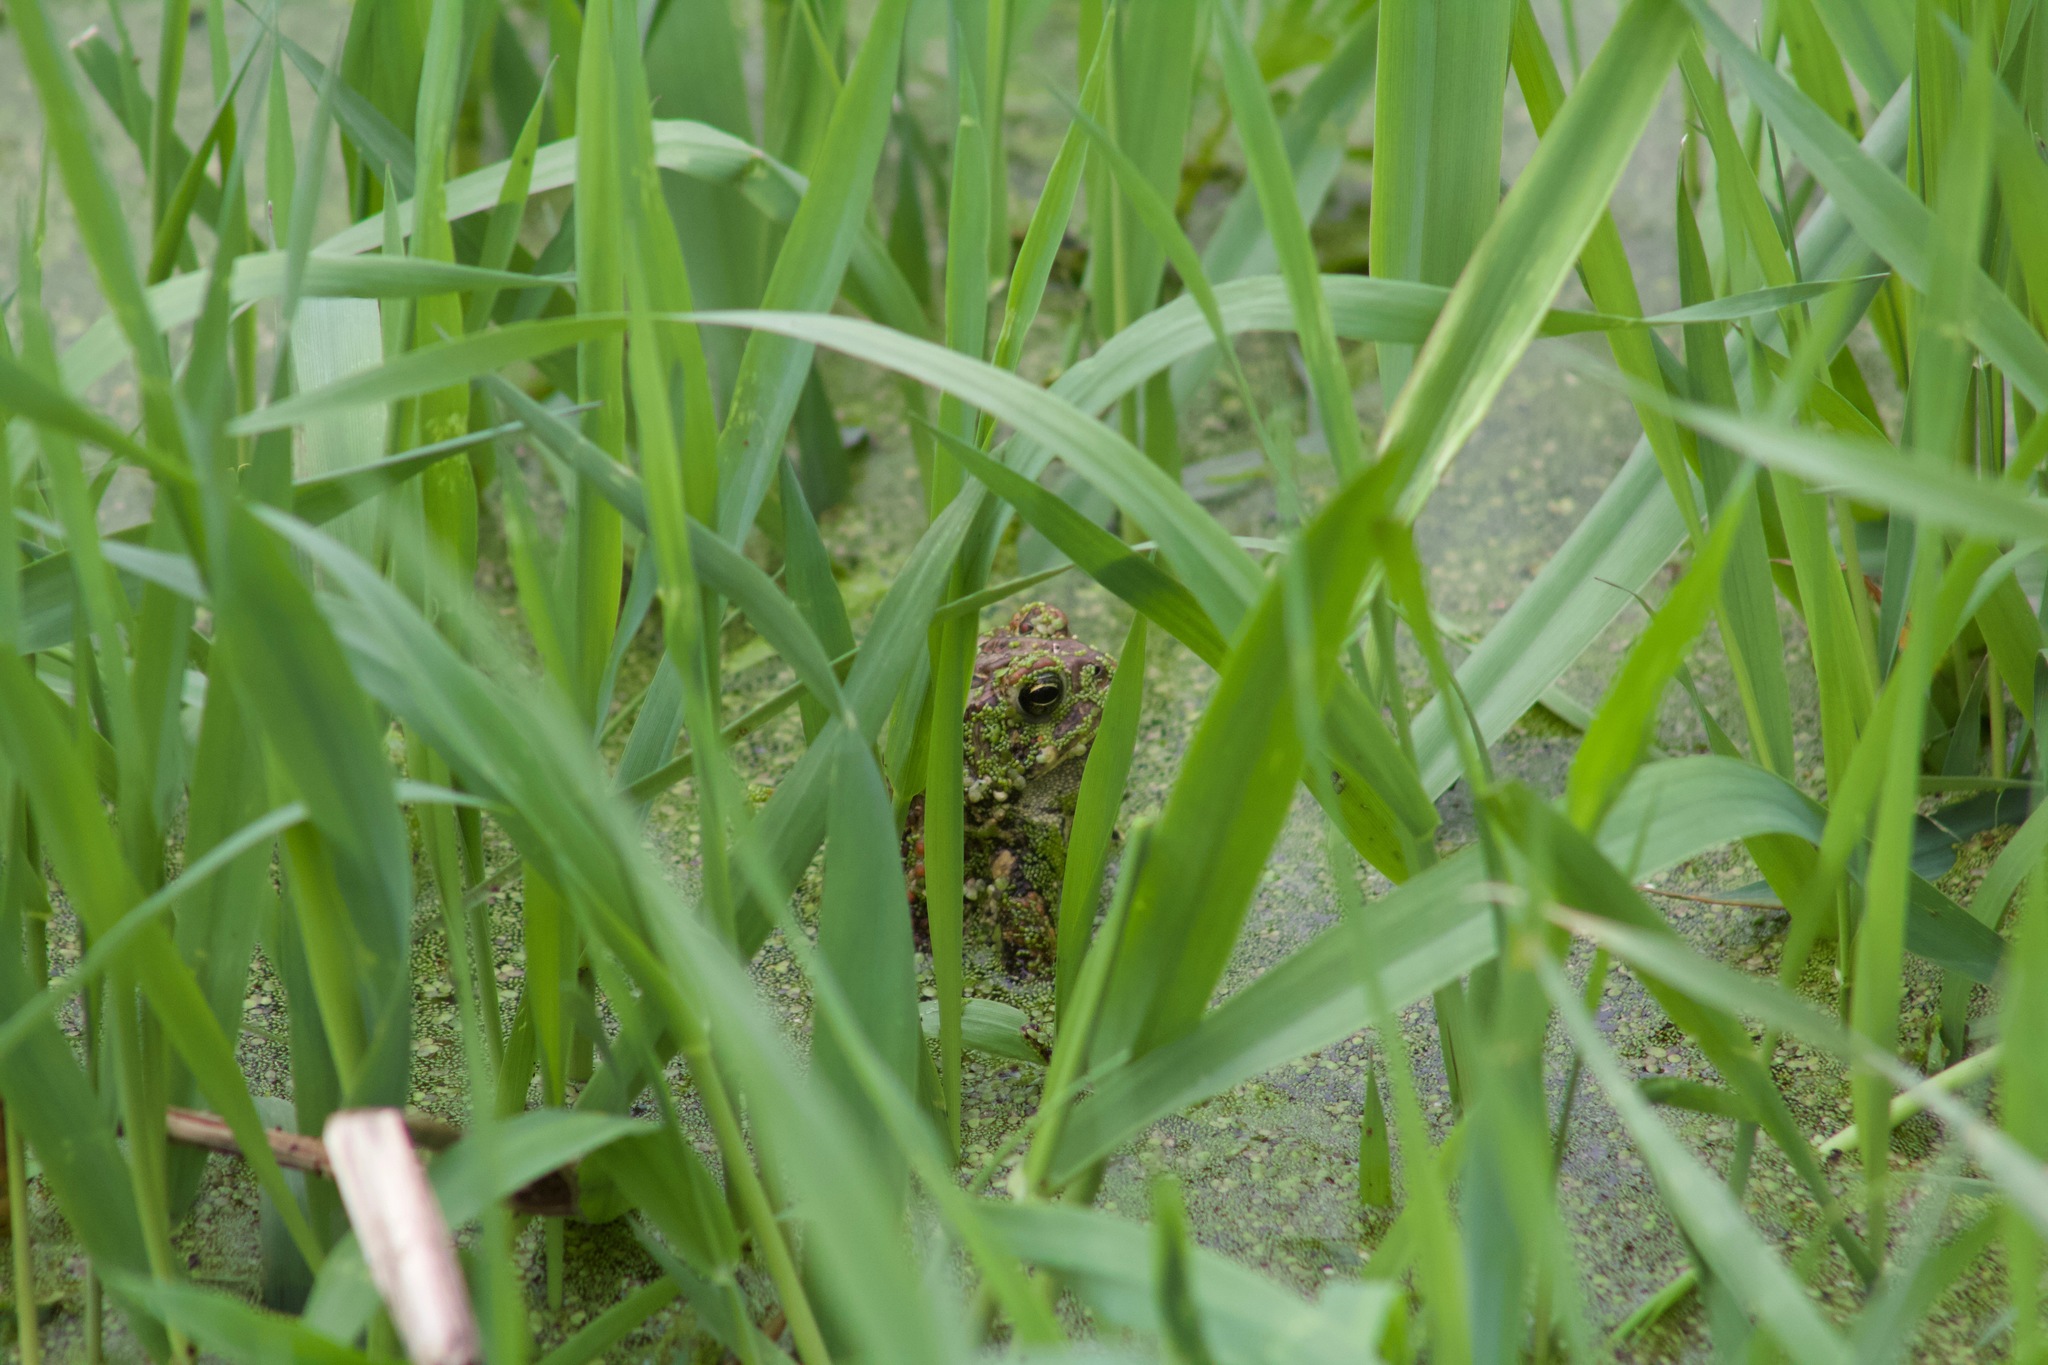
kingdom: Animalia
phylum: Chordata
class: Amphibia
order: Anura
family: Bufonidae
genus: Anaxyrus
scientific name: Anaxyrus americanus
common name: American toad
